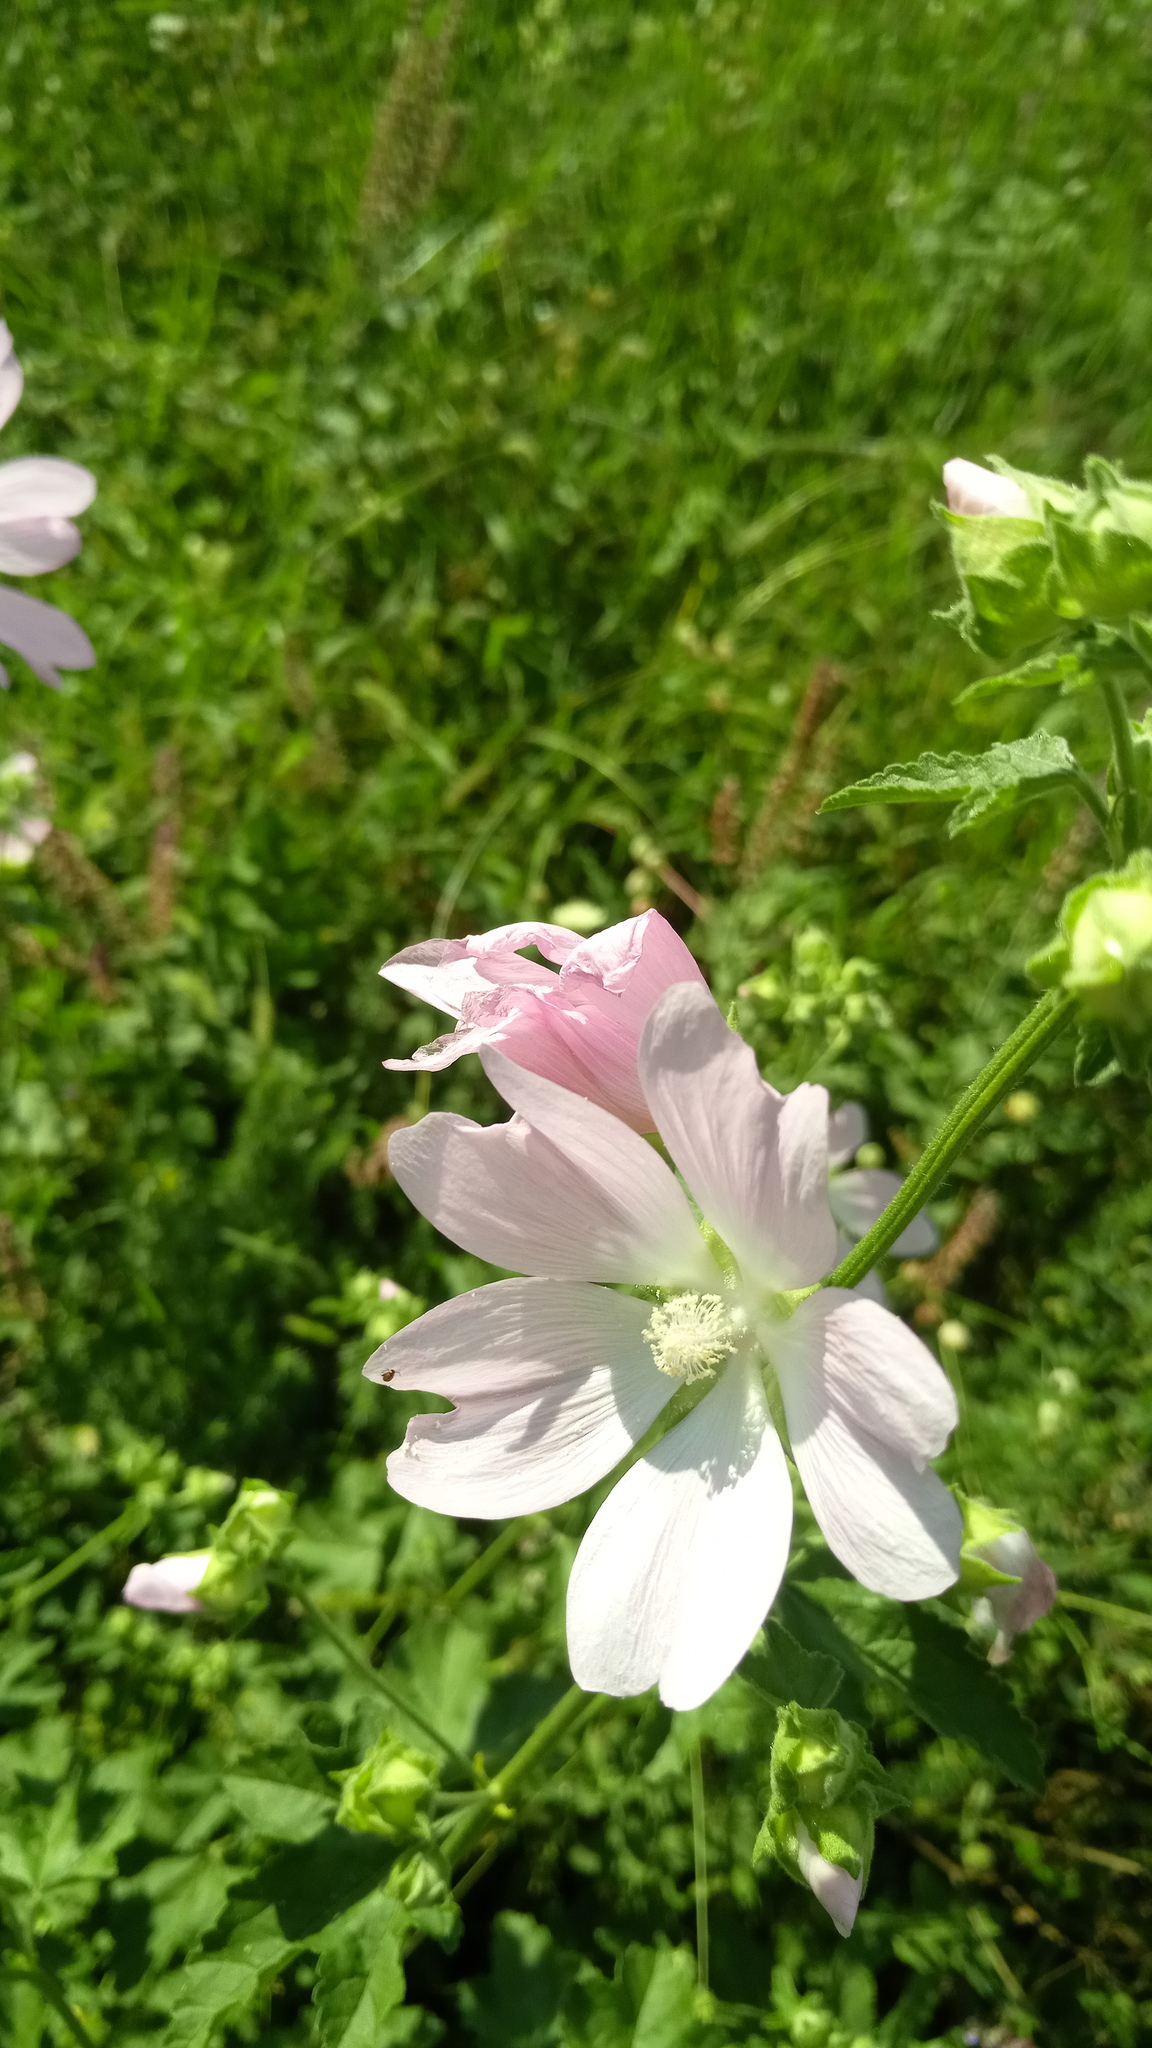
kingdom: Plantae
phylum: Tracheophyta
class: Magnoliopsida
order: Malvales
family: Malvaceae
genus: Malva
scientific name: Malva thuringiaca
